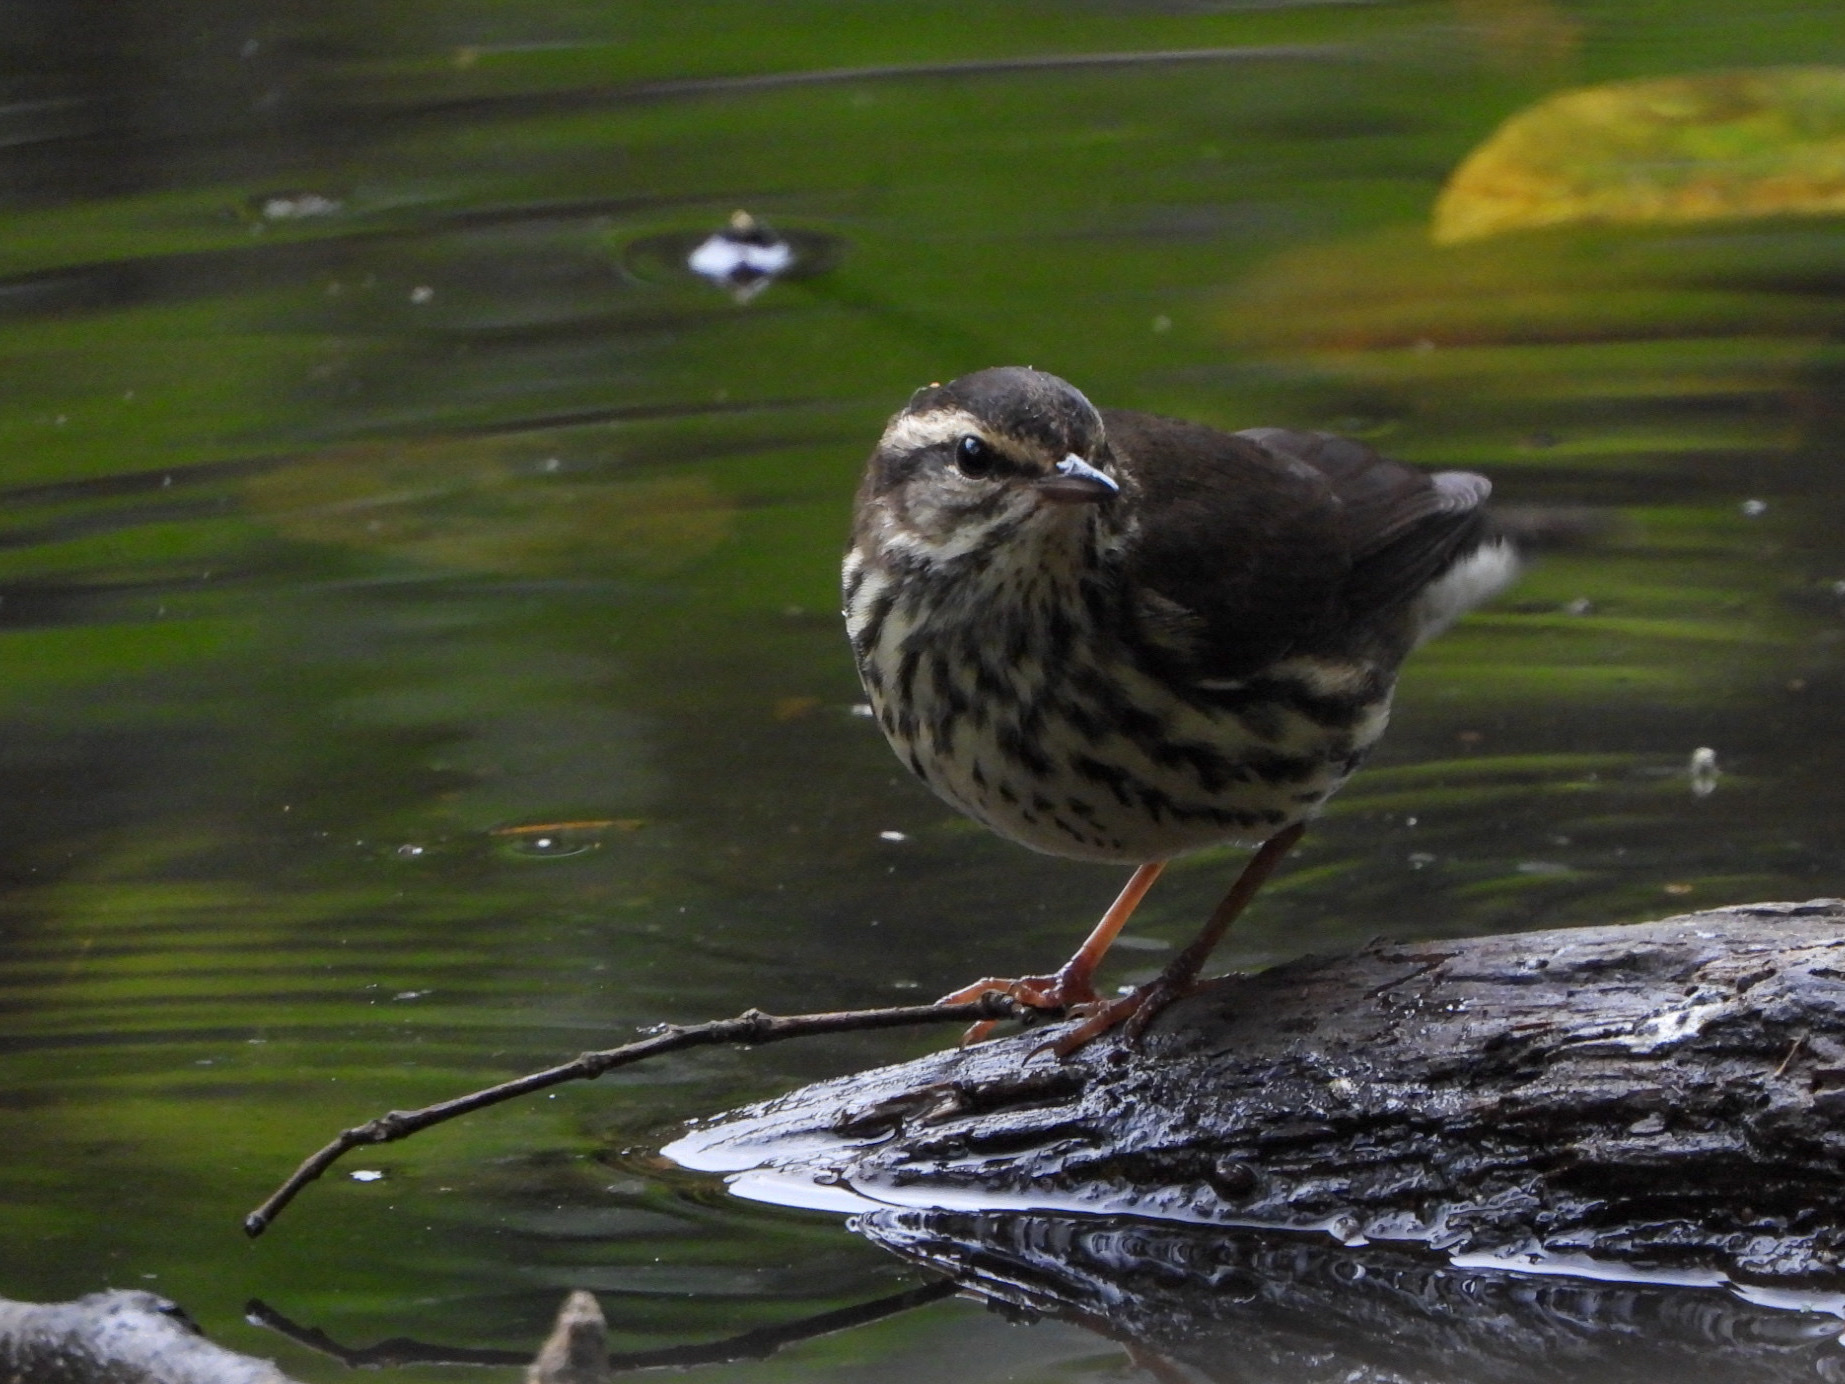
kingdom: Animalia
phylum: Chordata
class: Aves
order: Passeriformes
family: Parulidae
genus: Parkesia
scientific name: Parkesia noveboracensis
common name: Northern waterthrush
